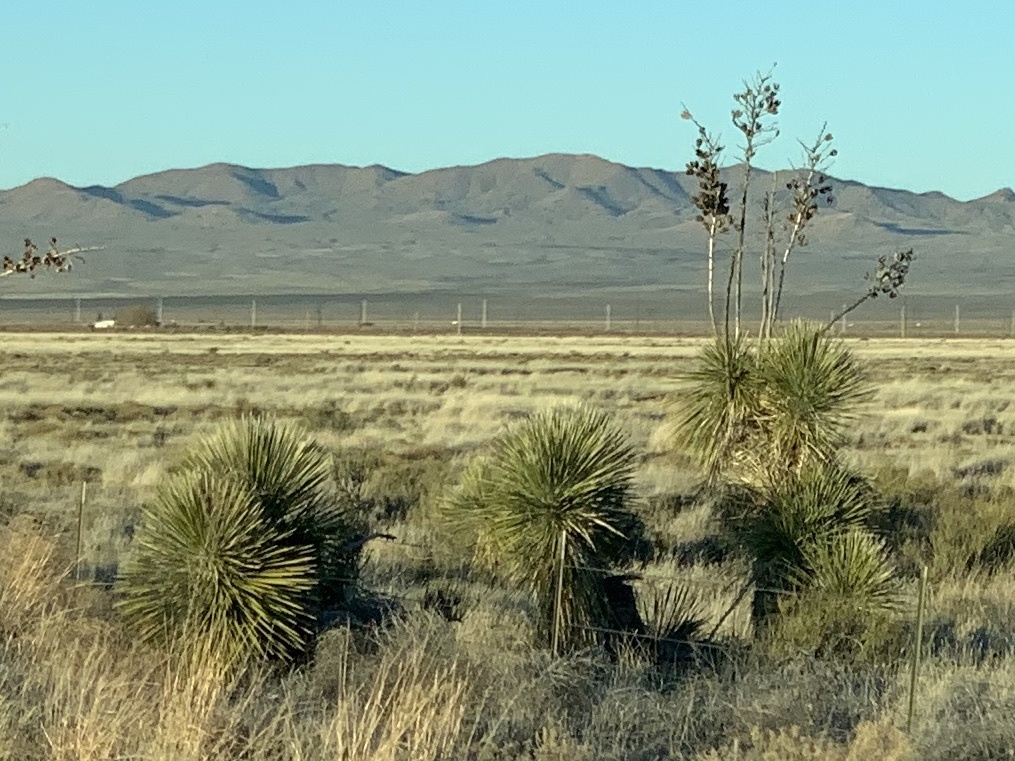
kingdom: Plantae
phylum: Tracheophyta
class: Liliopsida
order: Asparagales
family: Asparagaceae
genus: Yucca
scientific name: Yucca elata
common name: Palmella
